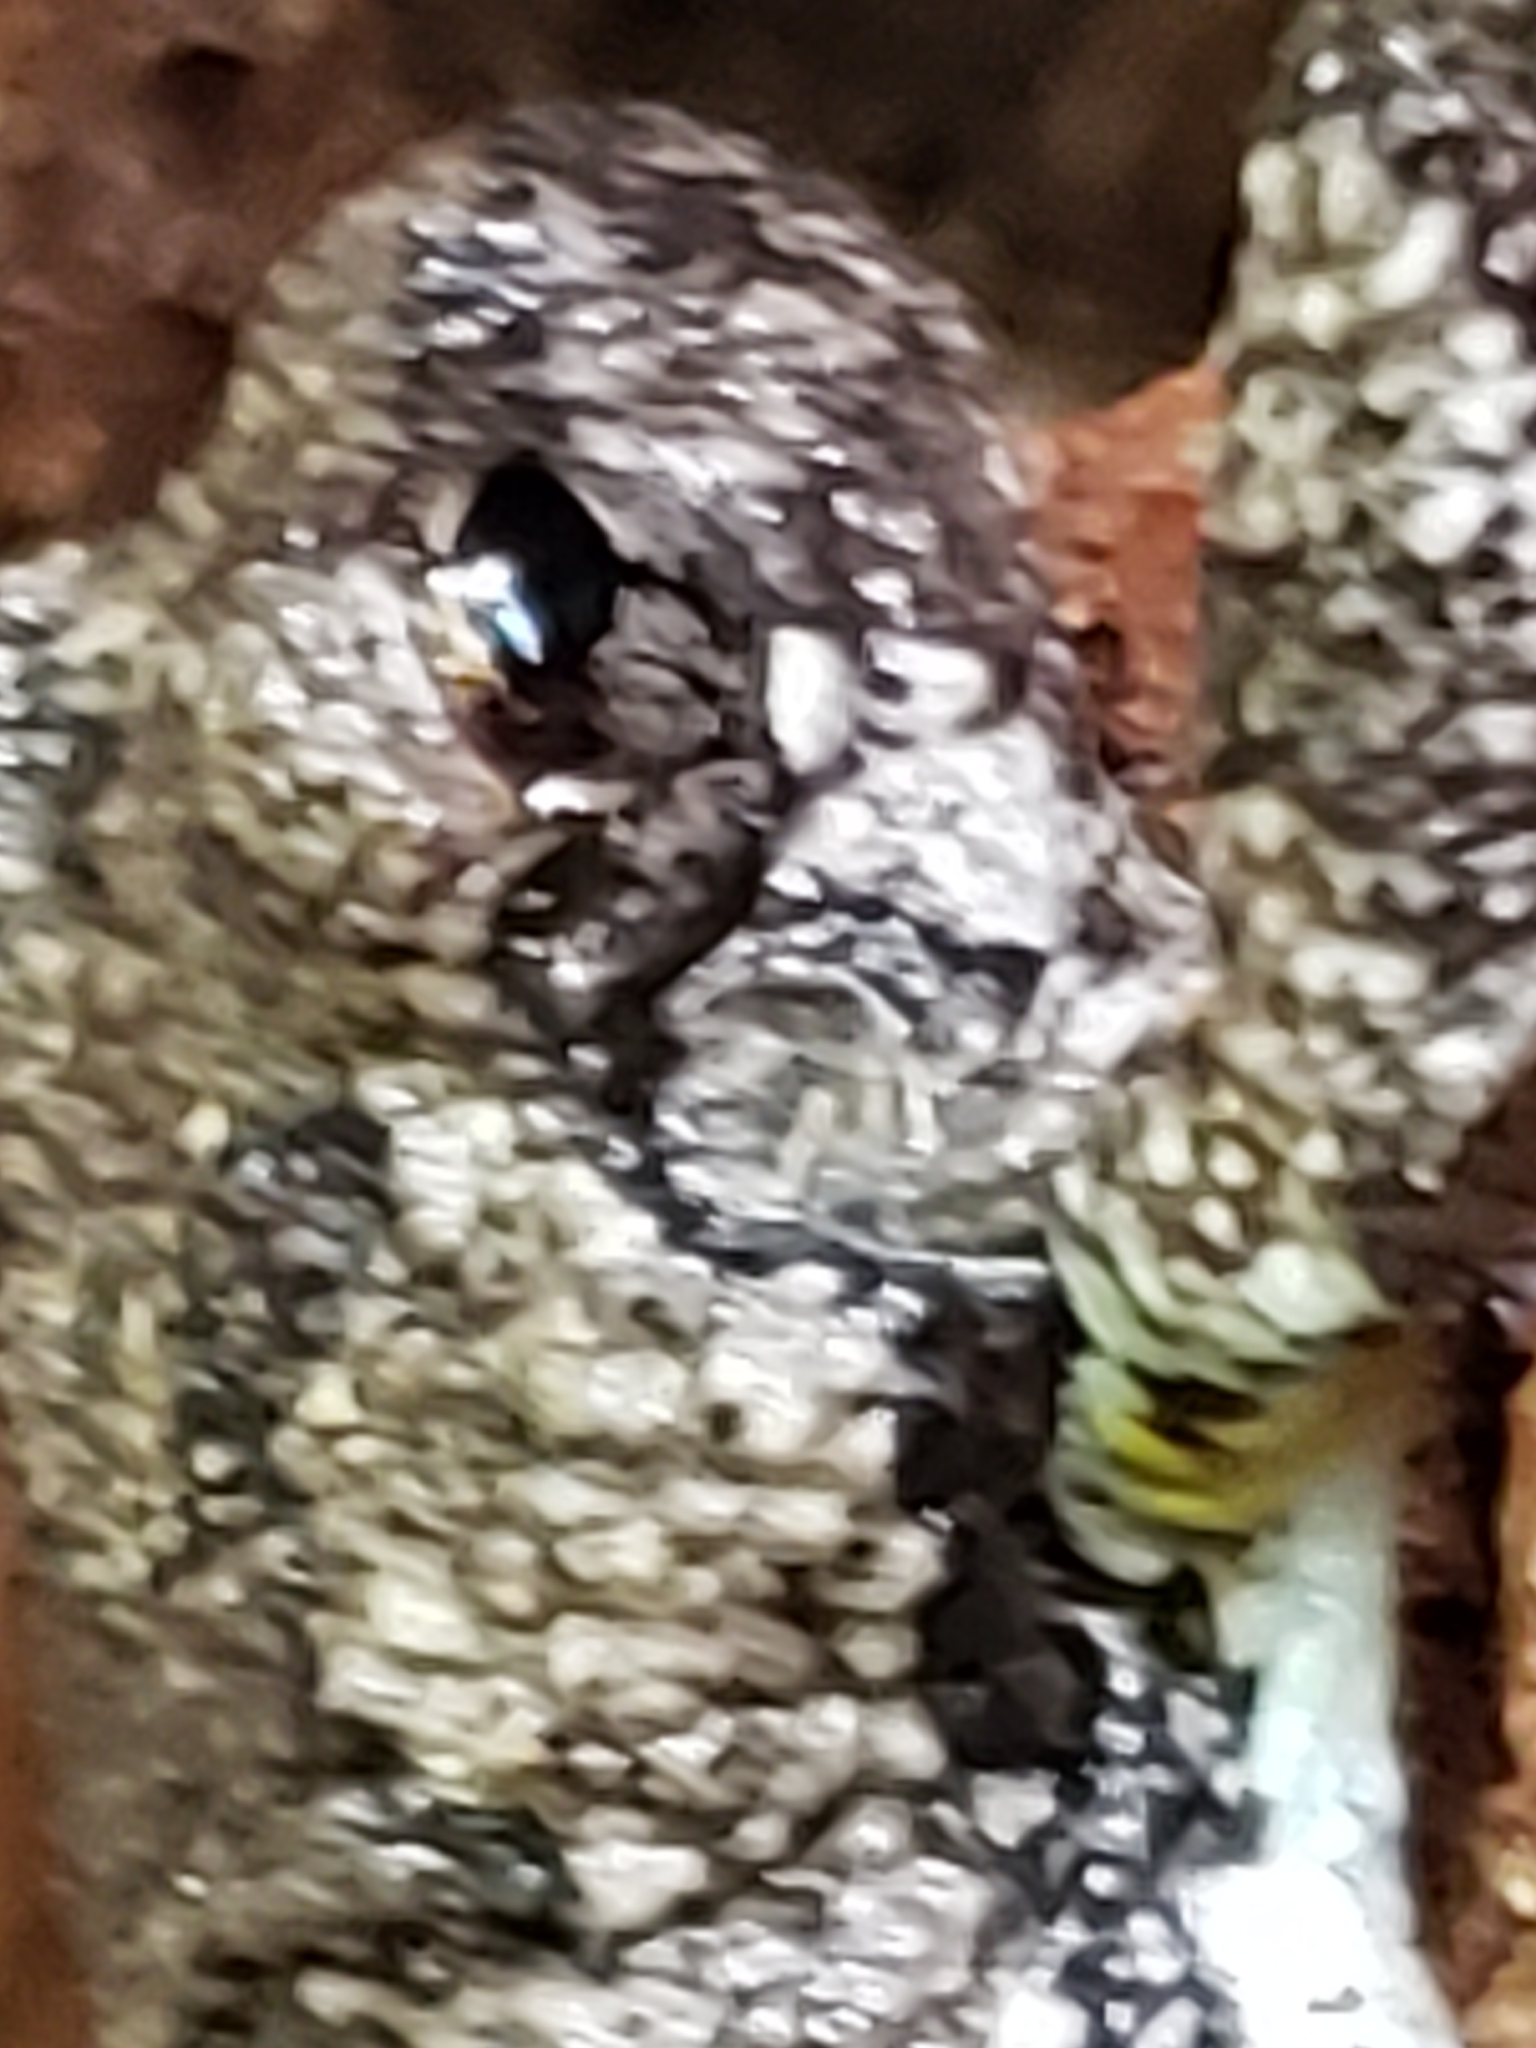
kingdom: Animalia
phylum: Chordata
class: Amphibia
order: Anura
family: Hylidae
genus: Hyla
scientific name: Hyla
